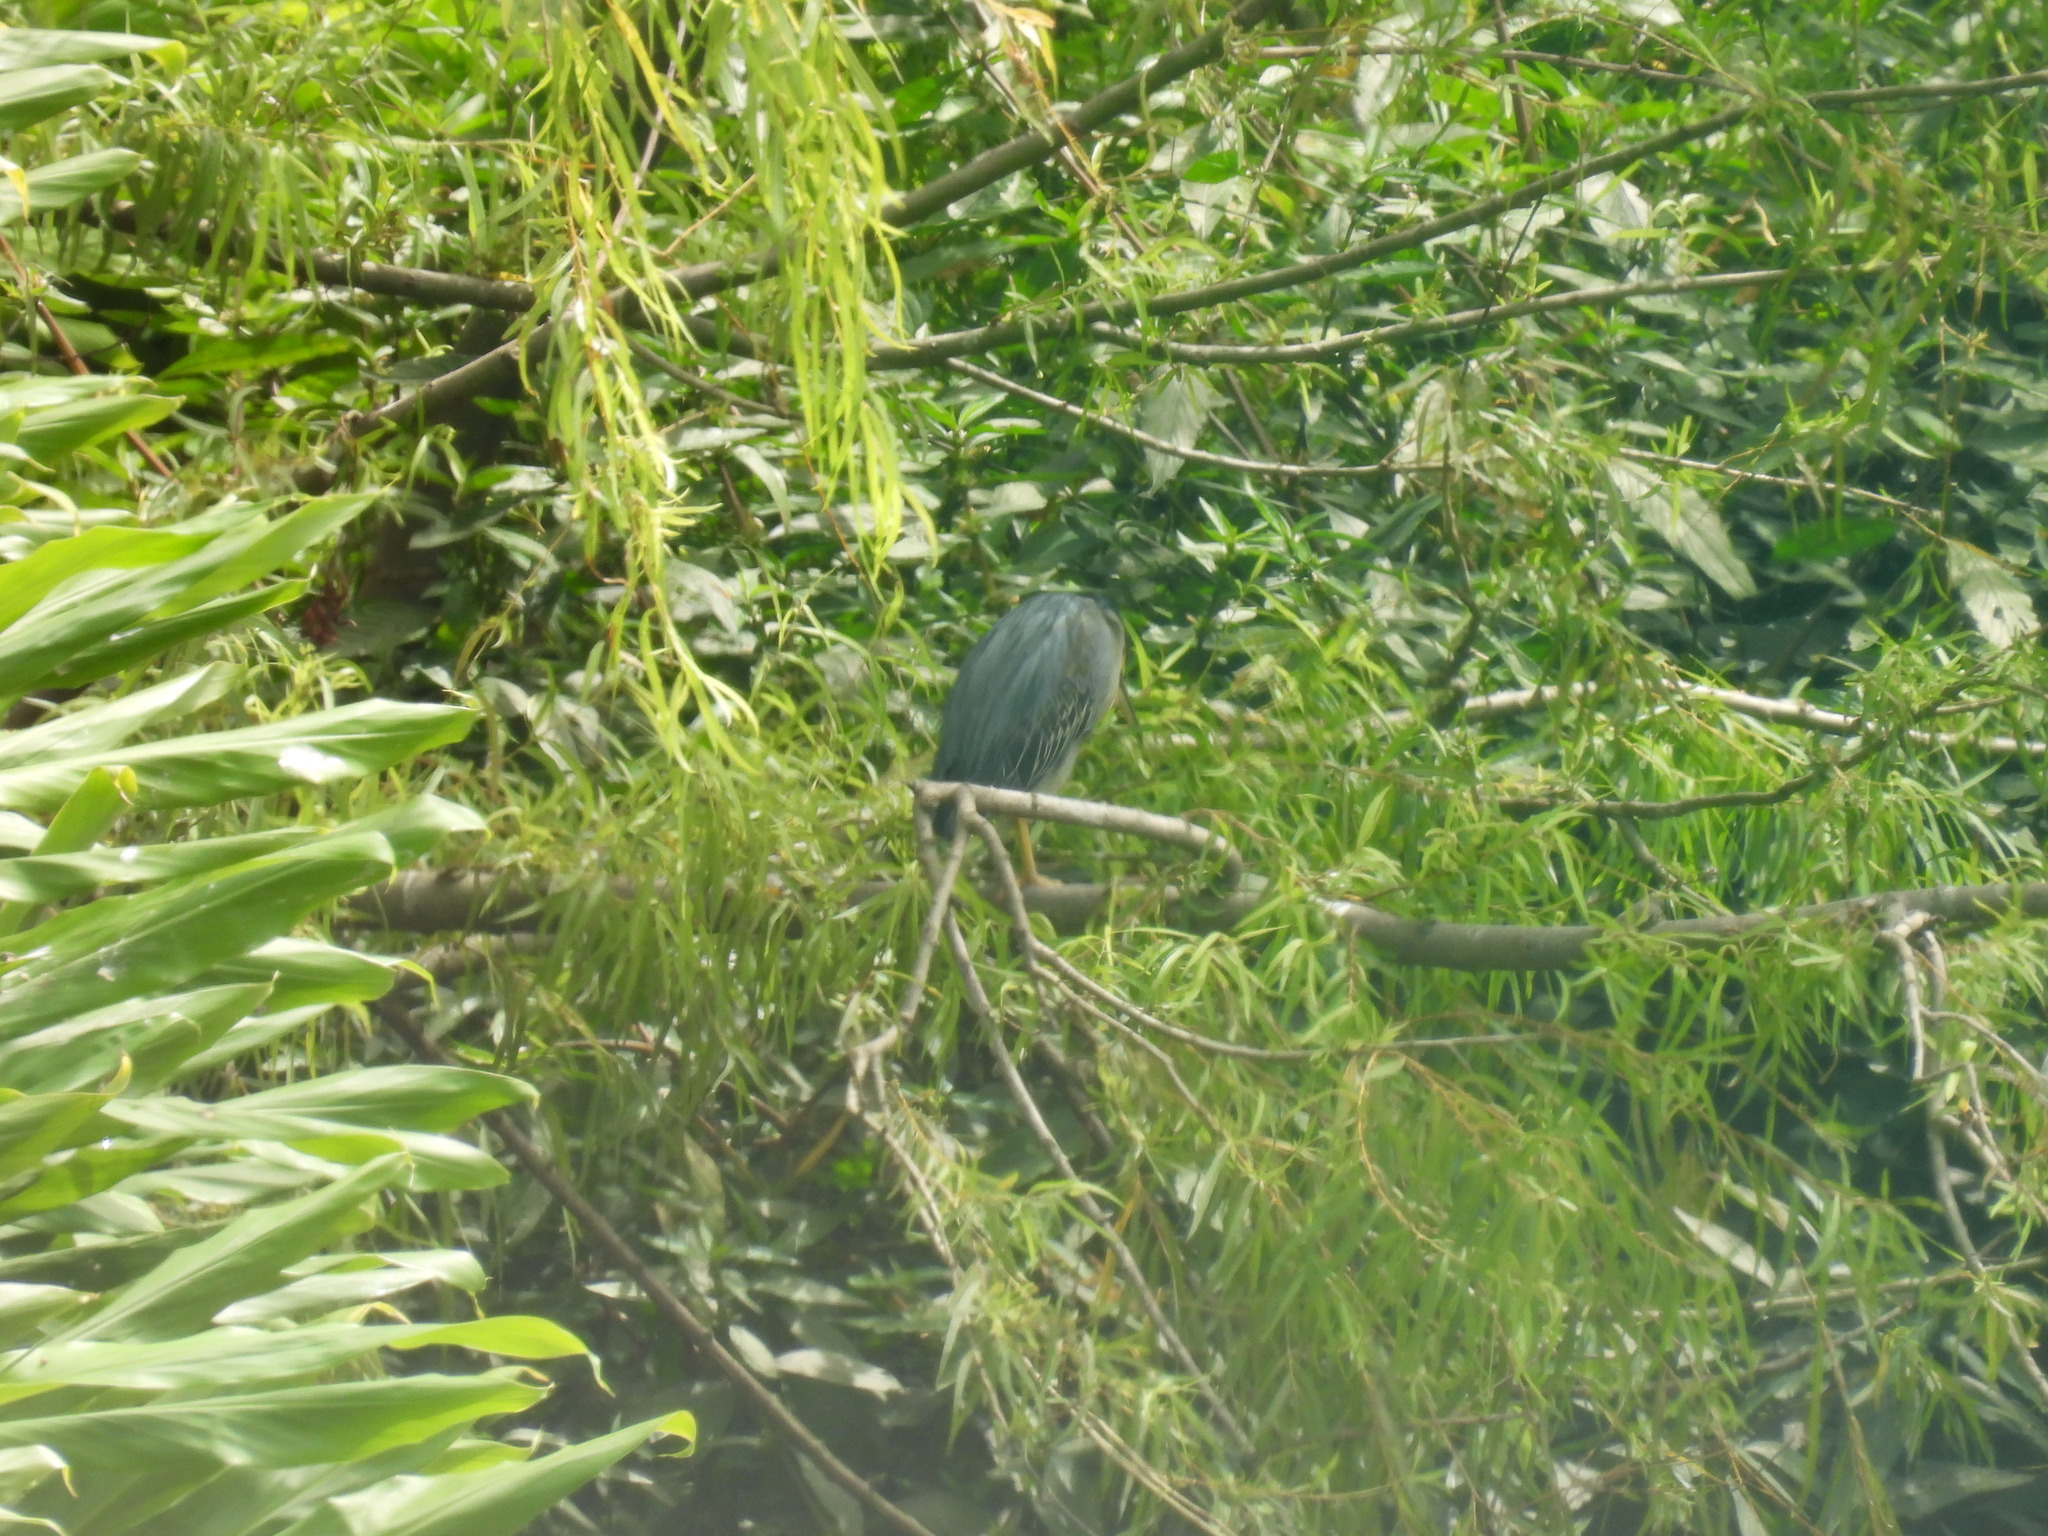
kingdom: Animalia
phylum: Chordata
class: Aves
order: Pelecaniformes
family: Ardeidae
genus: Butorides
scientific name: Butorides striata
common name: Striated heron
